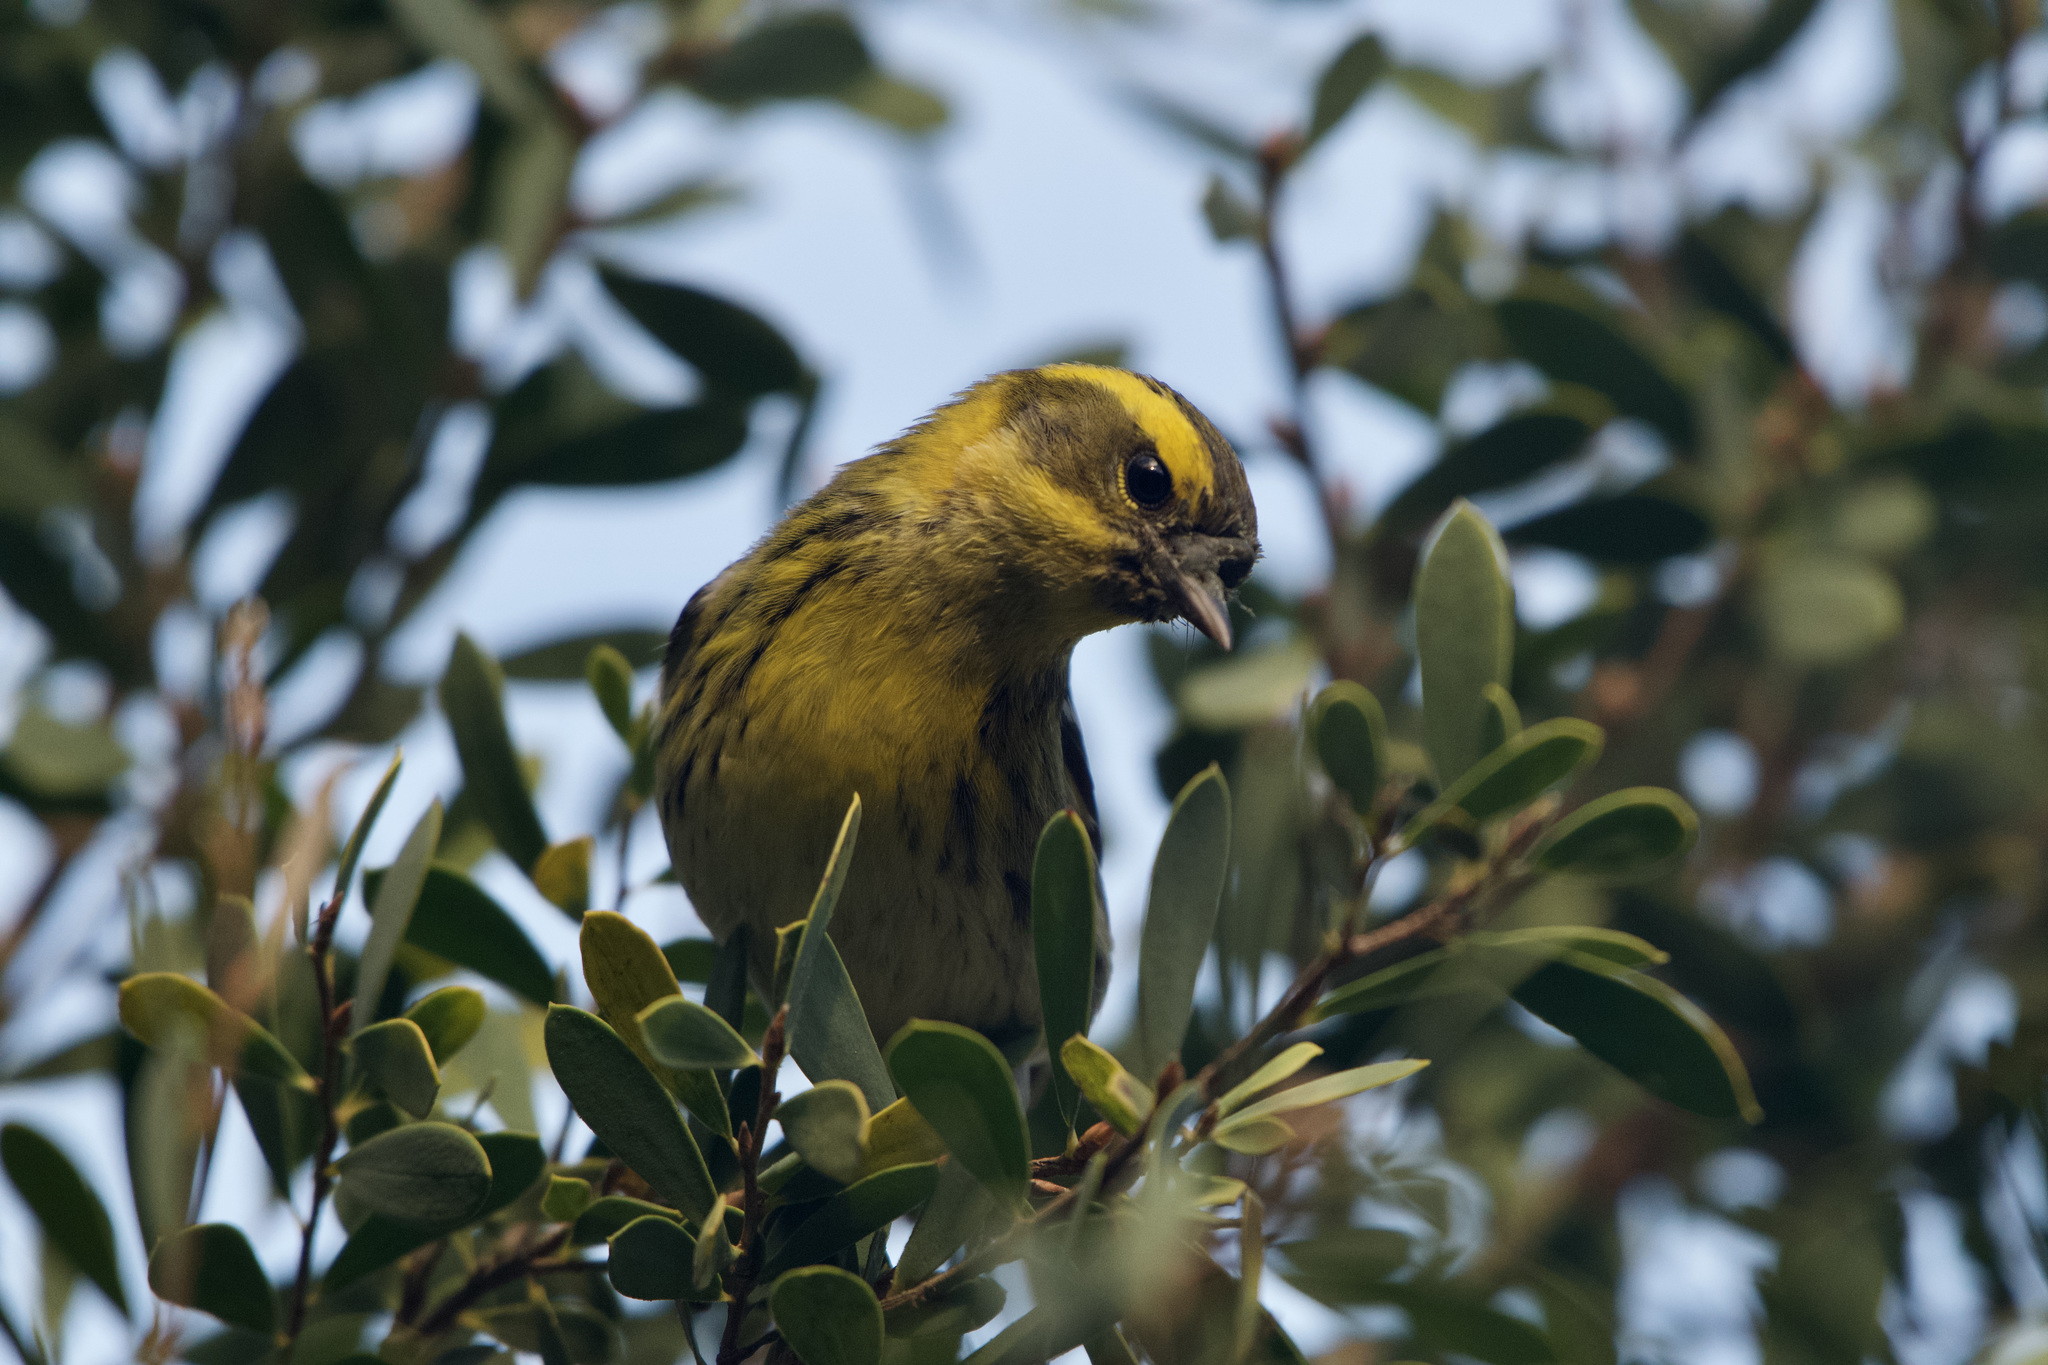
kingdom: Animalia
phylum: Chordata
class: Aves
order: Passeriformes
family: Parulidae
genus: Setophaga
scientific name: Setophaga townsendi
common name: Townsend's warbler
